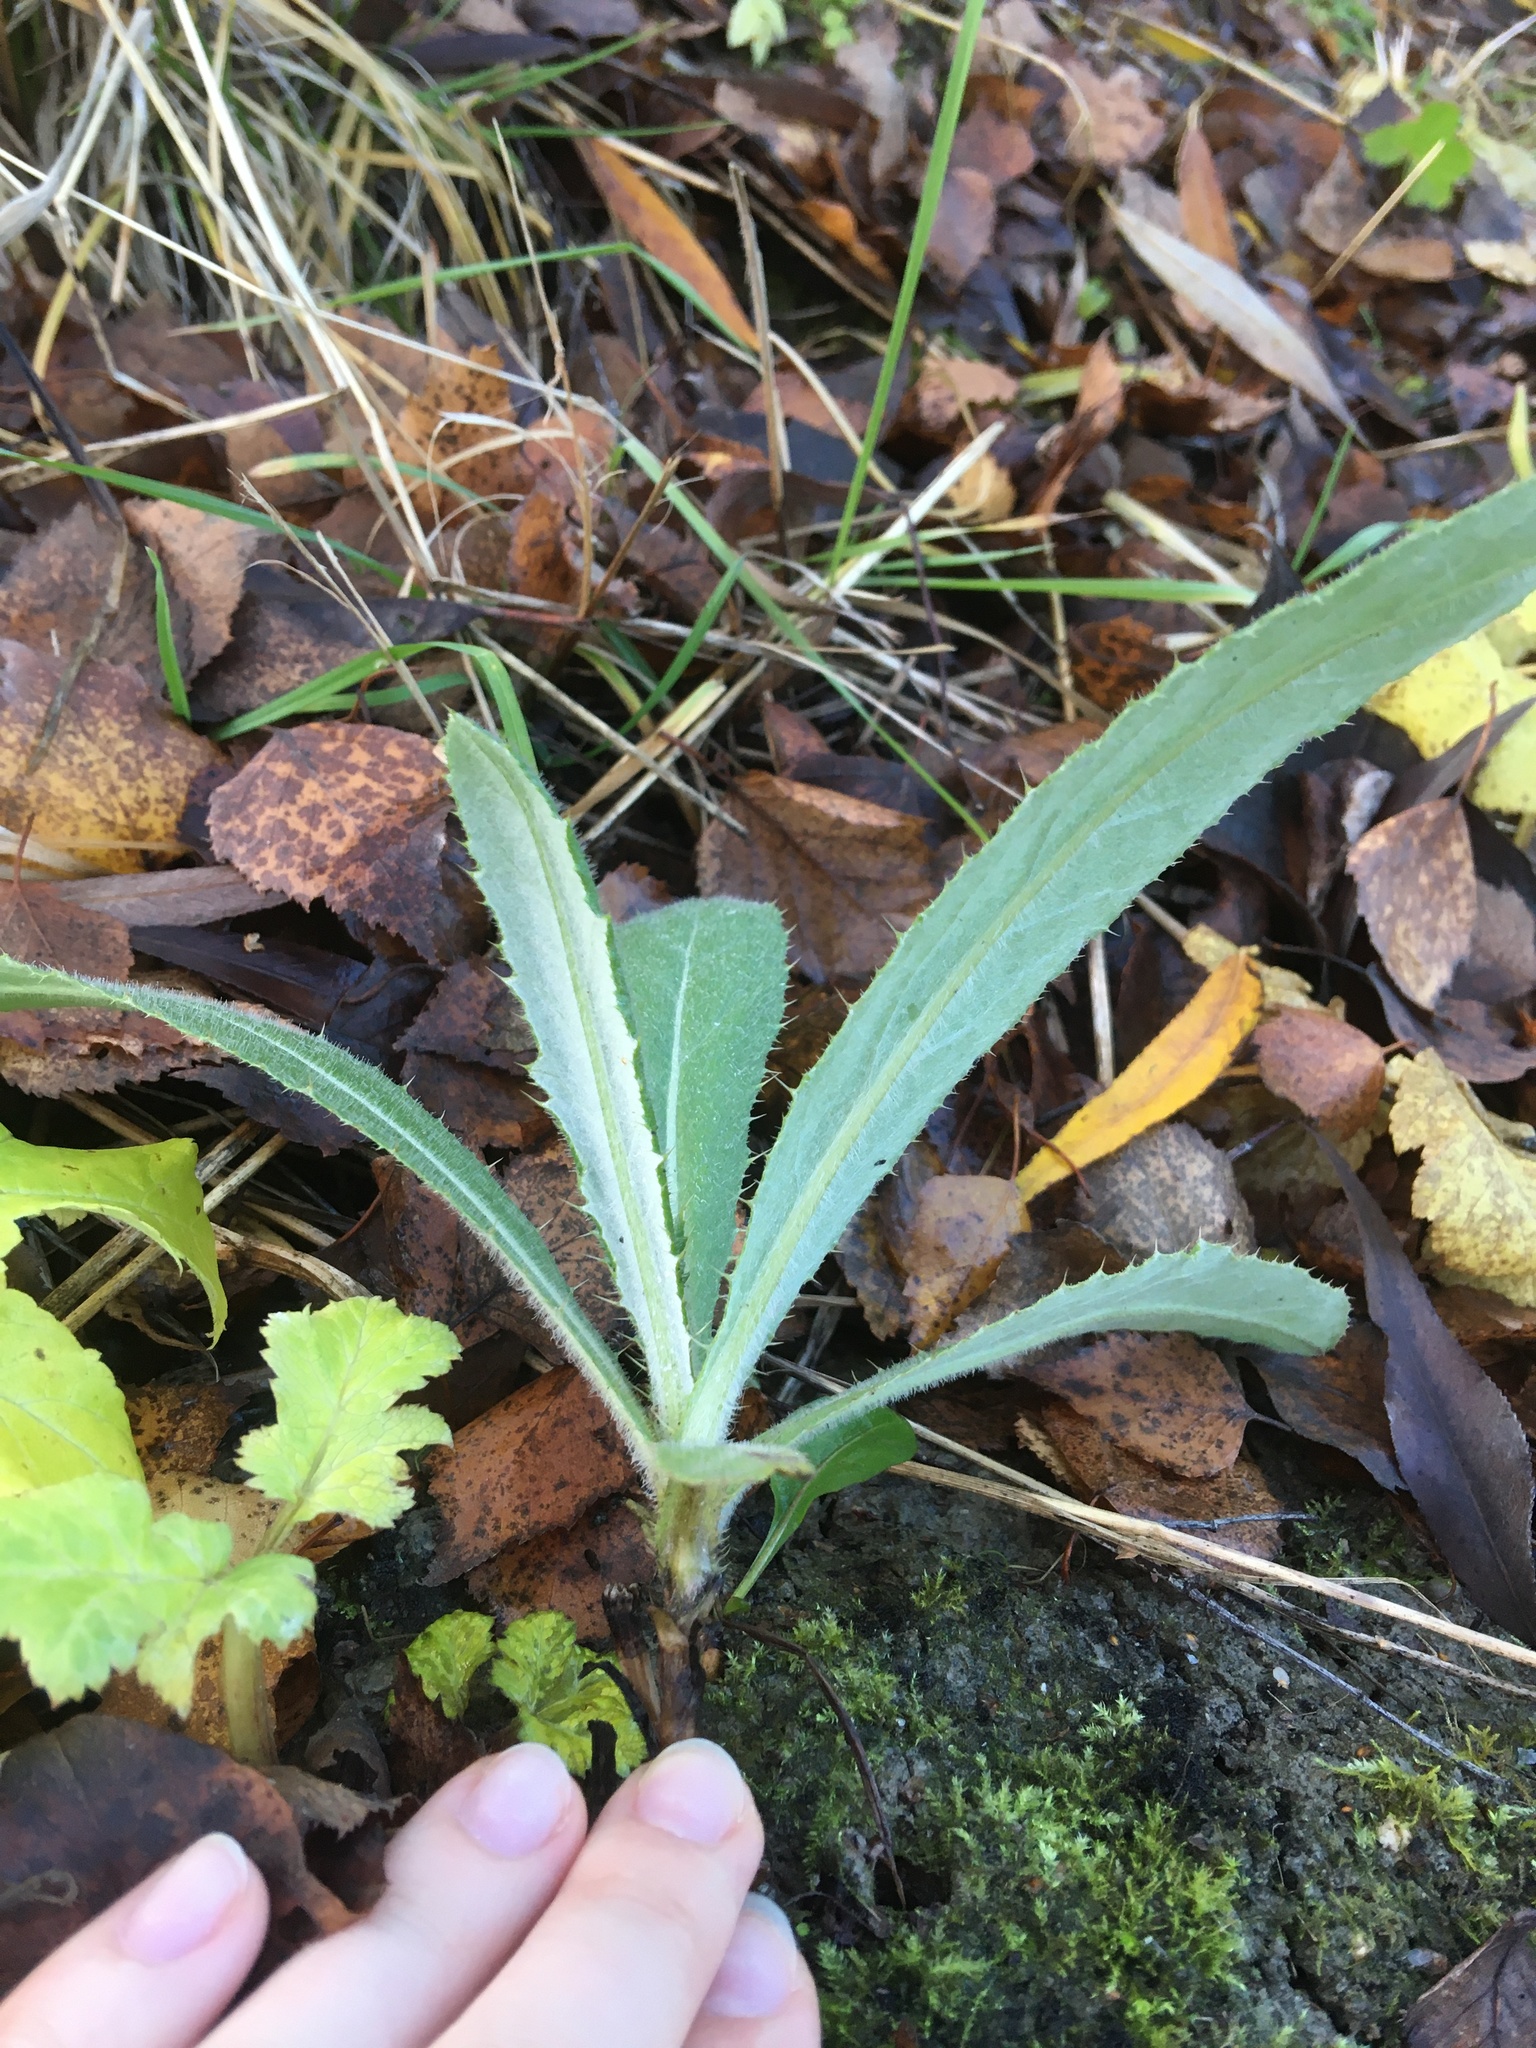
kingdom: Plantae
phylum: Tracheophyta
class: Magnoliopsida
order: Asterales
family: Asteraceae
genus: Cirsium
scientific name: Cirsium arvense
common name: Creeping thistle
